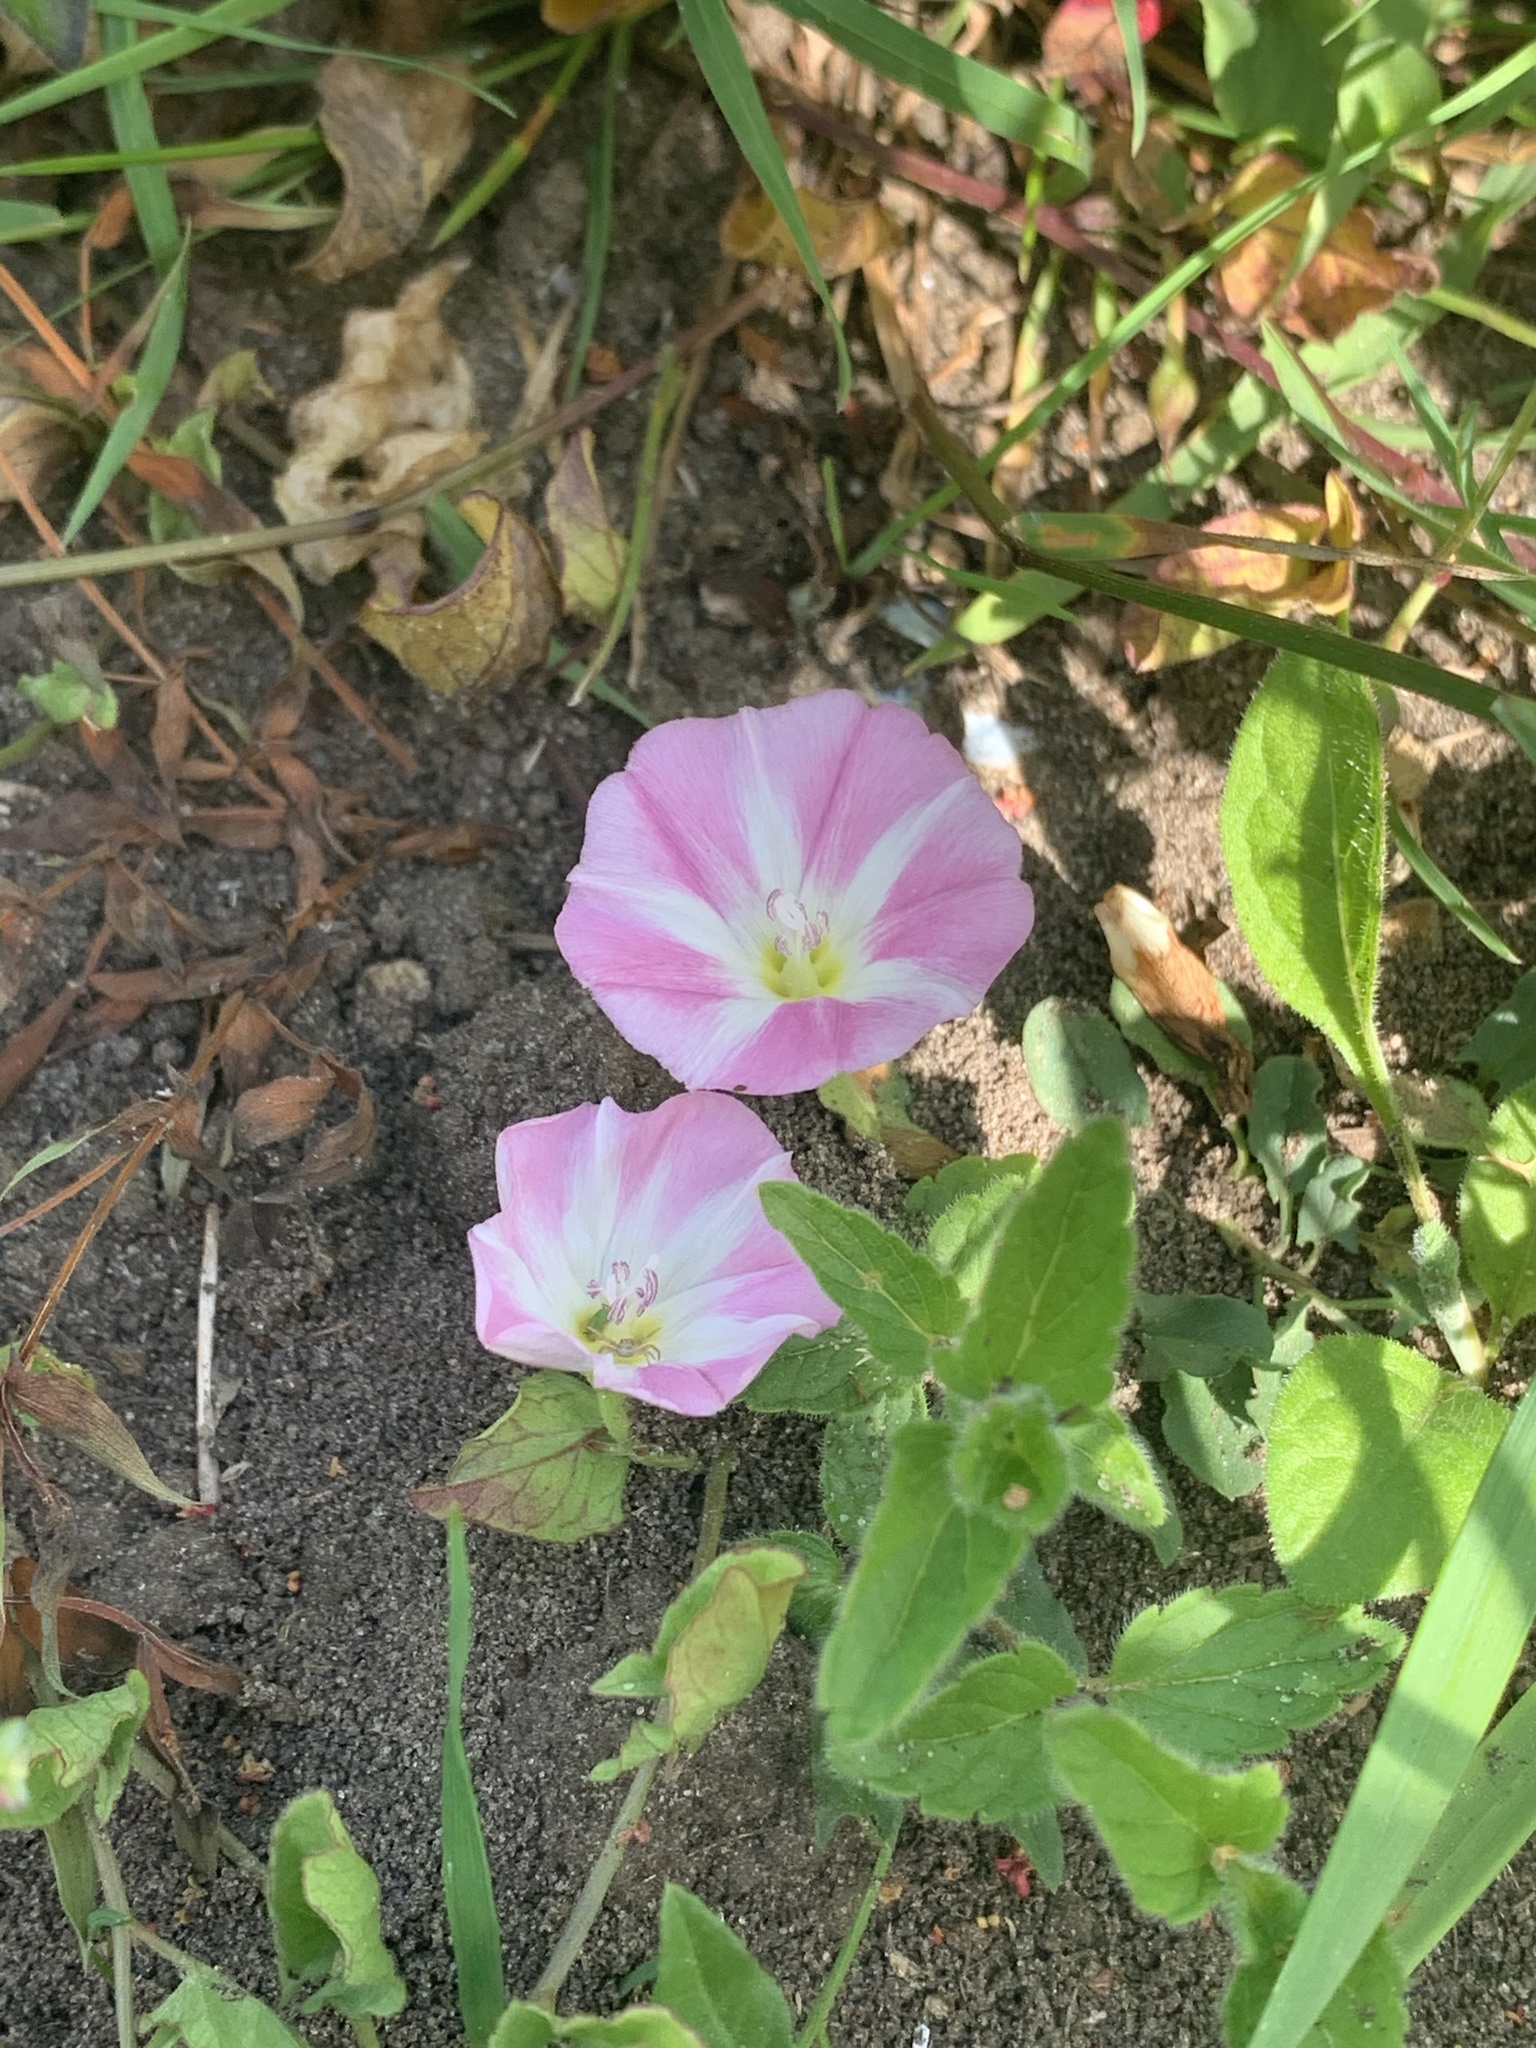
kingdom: Plantae
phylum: Tracheophyta
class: Magnoliopsida
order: Solanales
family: Convolvulaceae
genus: Convolvulus
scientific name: Convolvulus arvensis
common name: Field bindweed
